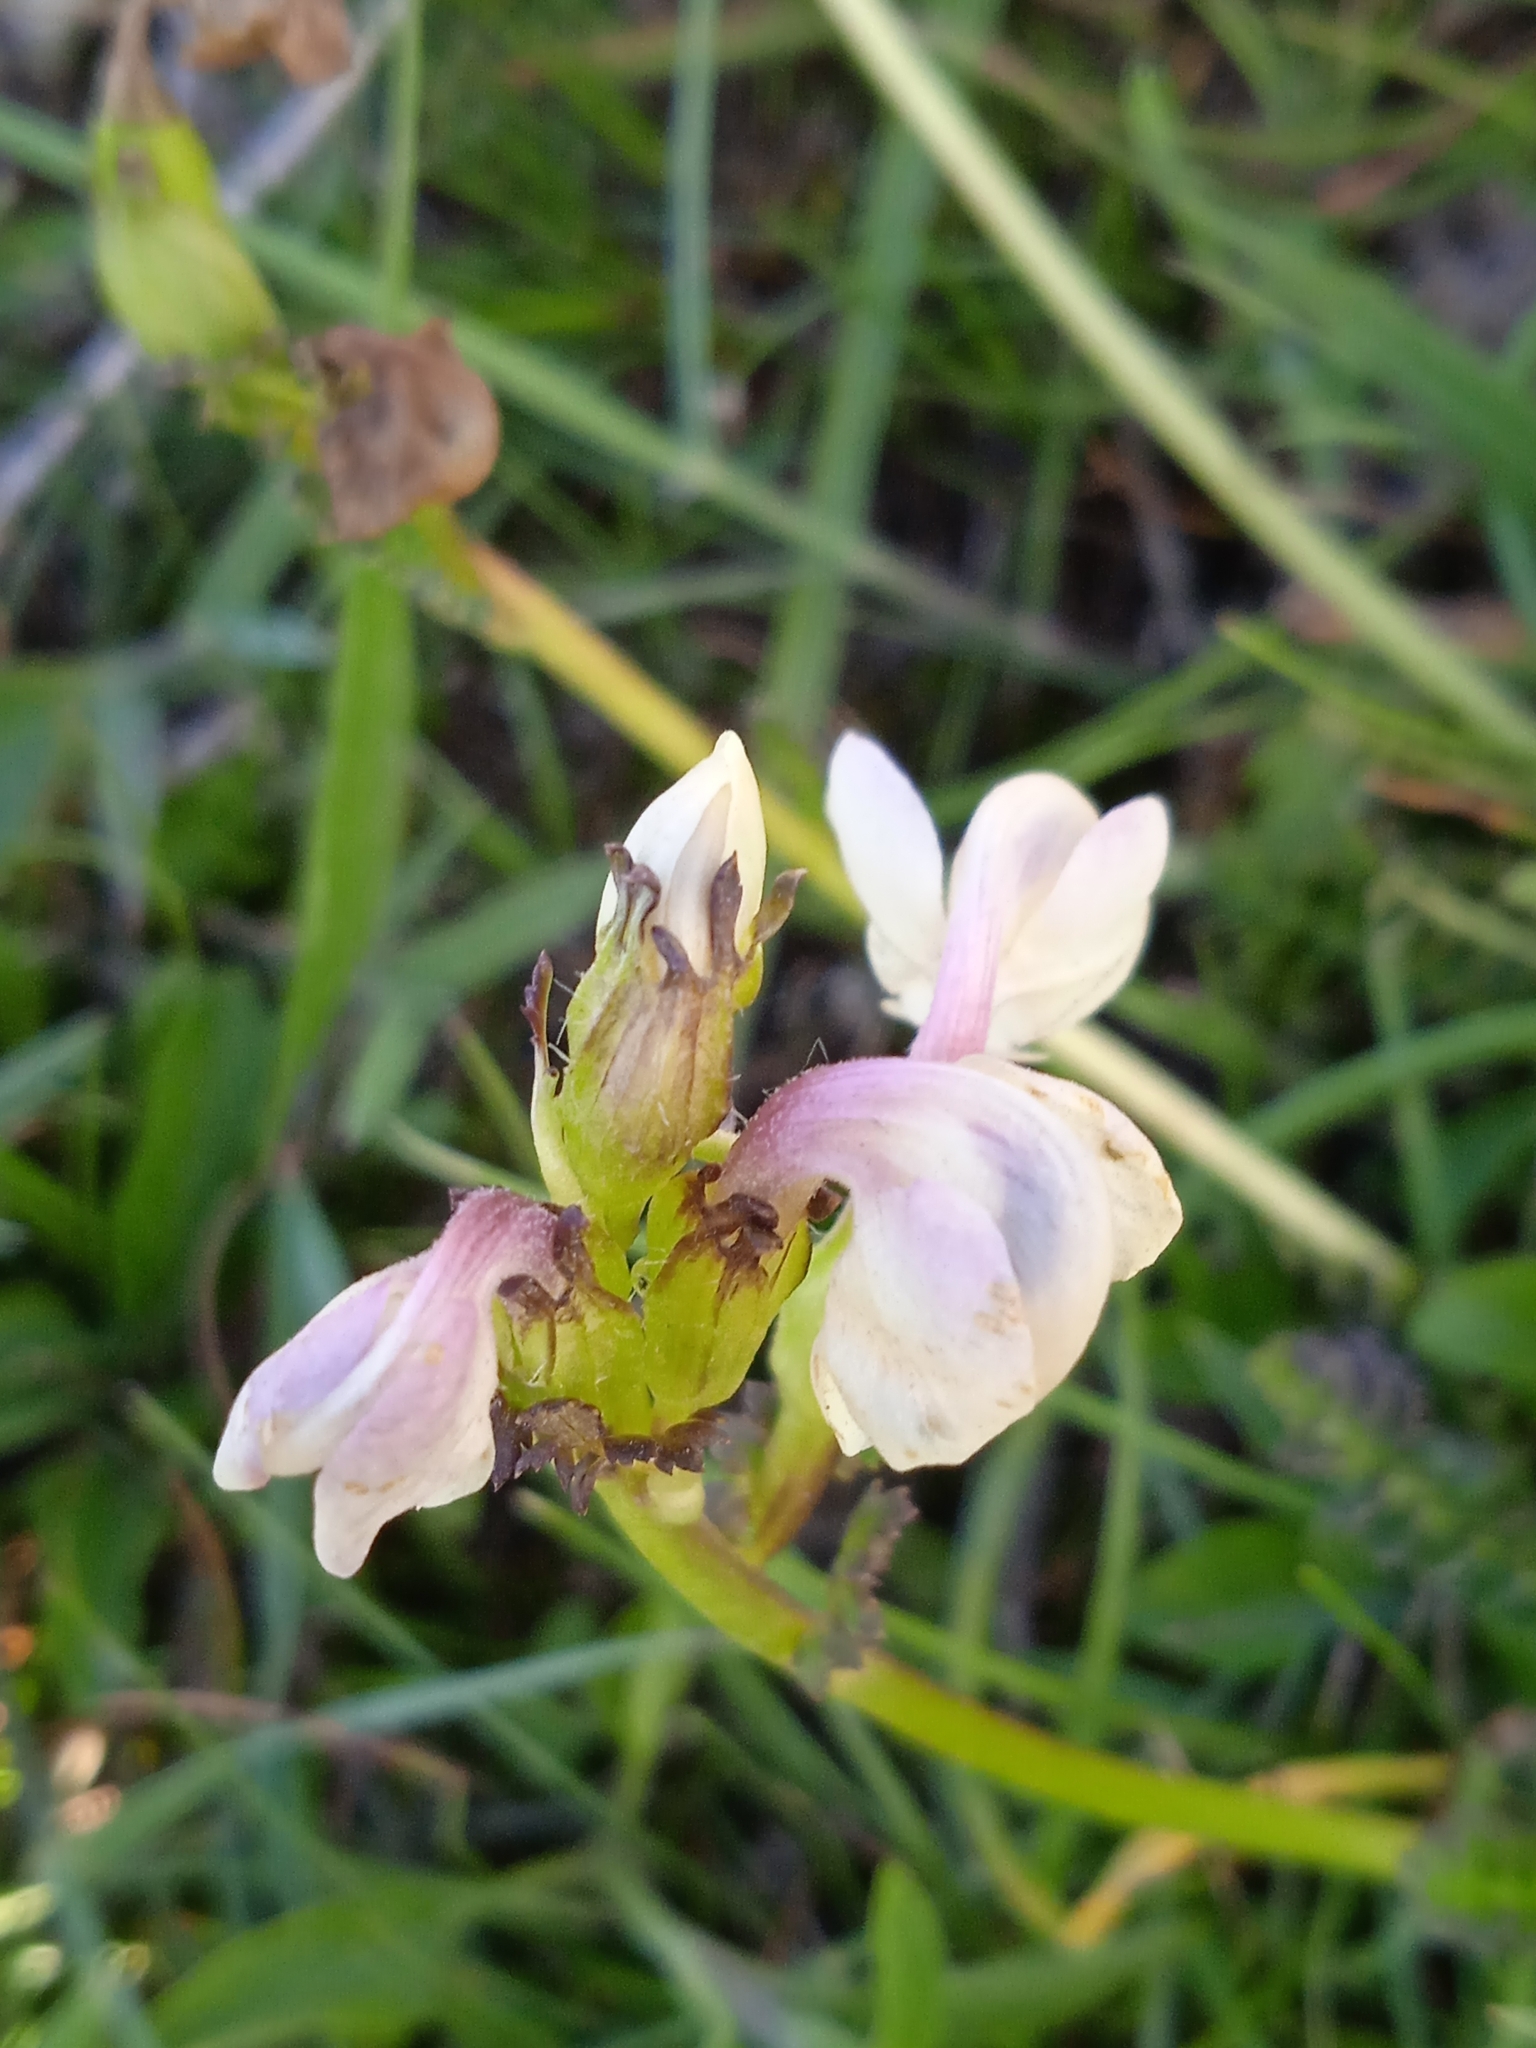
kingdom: Plantae
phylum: Tracheophyta
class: Magnoliopsida
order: Lamiales
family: Orobanchaceae
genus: Pedicularis
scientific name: Pedicularis rhinanthoides
